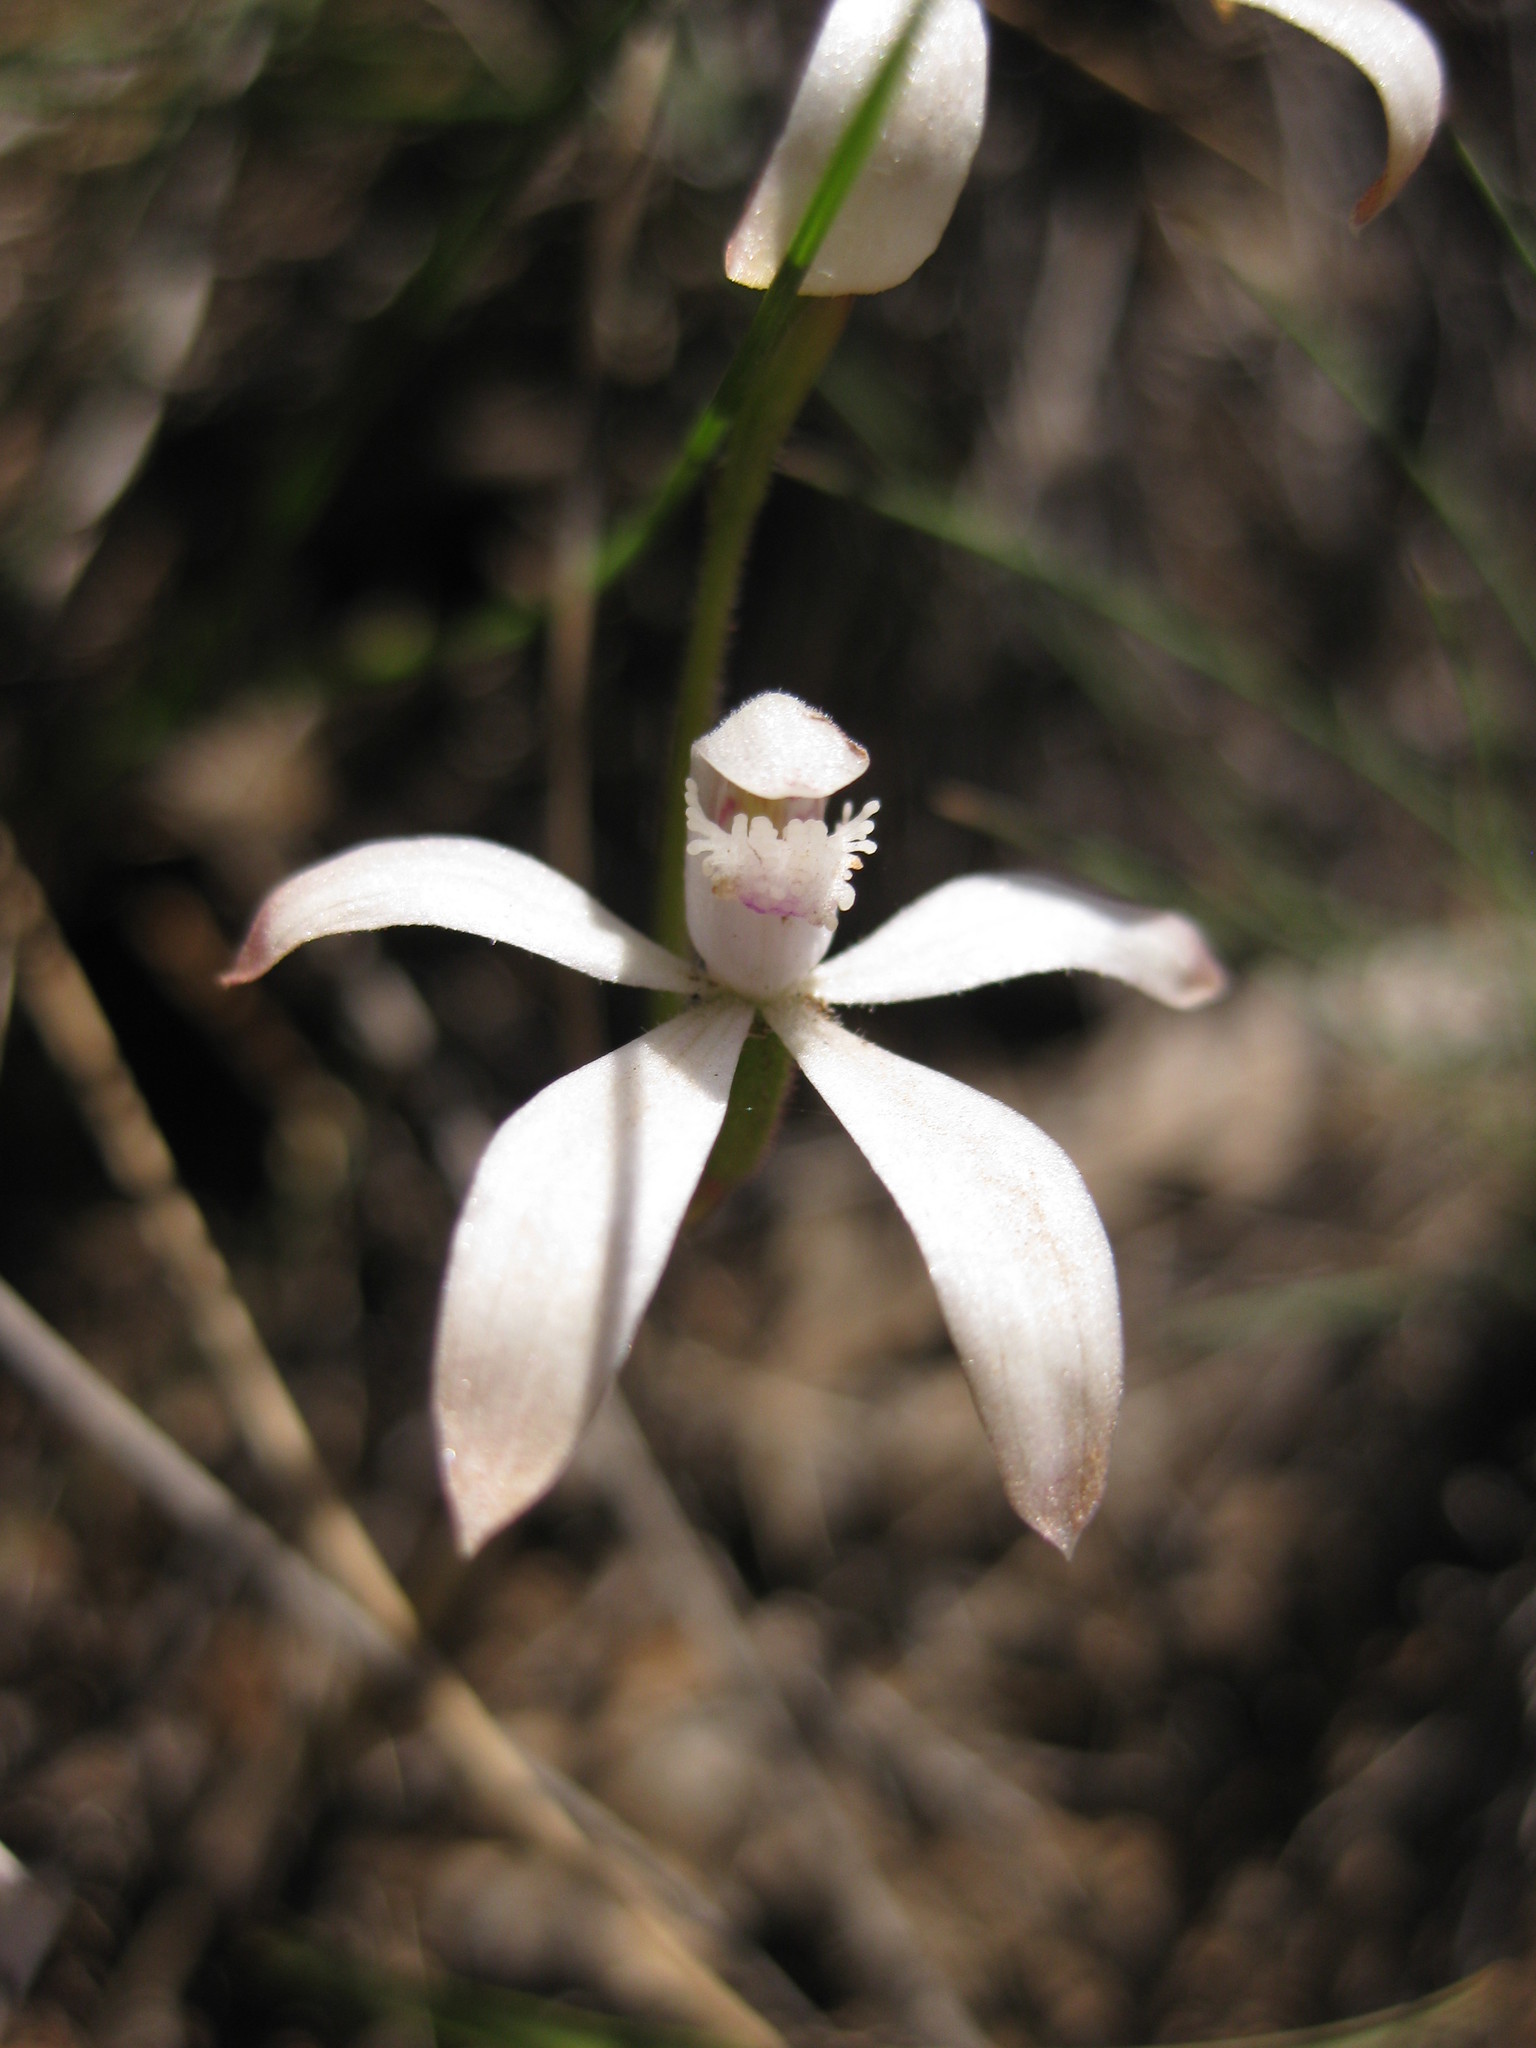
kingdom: Plantae
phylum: Tracheophyta
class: Liliopsida
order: Asparagales
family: Orchidaceae
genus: Caladenia
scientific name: Caladenia ustulata
